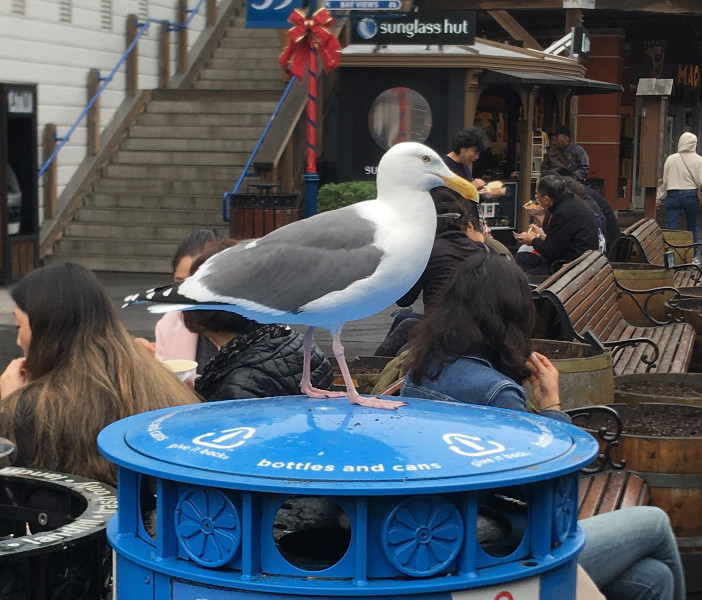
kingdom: Animalia
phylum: Chordata
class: Aves
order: Charadriiformes
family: Laridae
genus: Larus
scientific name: Larus occidentalis
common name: Western gull
